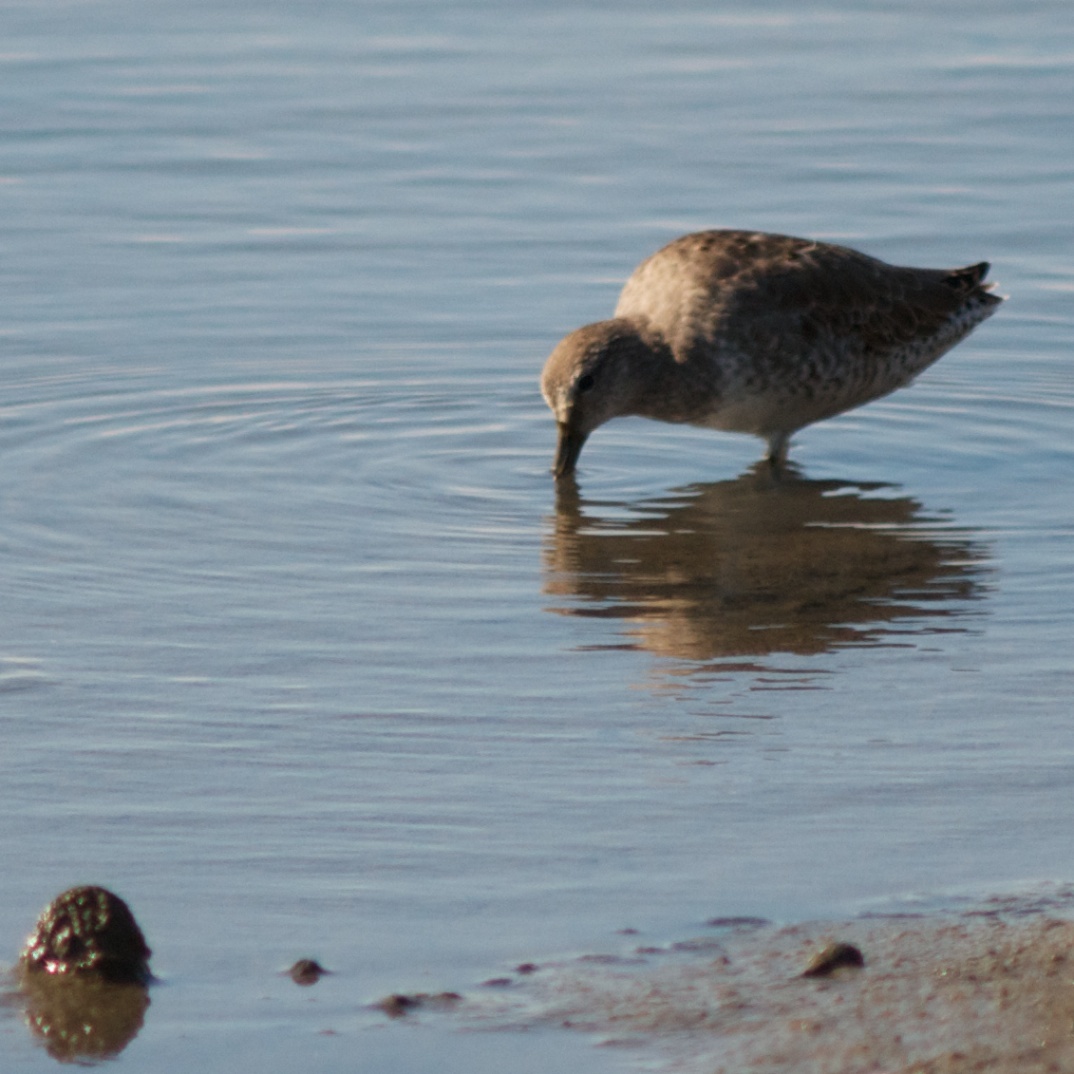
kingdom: Animalia
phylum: Chordata
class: Aves
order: Charadriiformes
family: Scolopacidae
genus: Tringa
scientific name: Tringa semipalmata
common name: Willet
